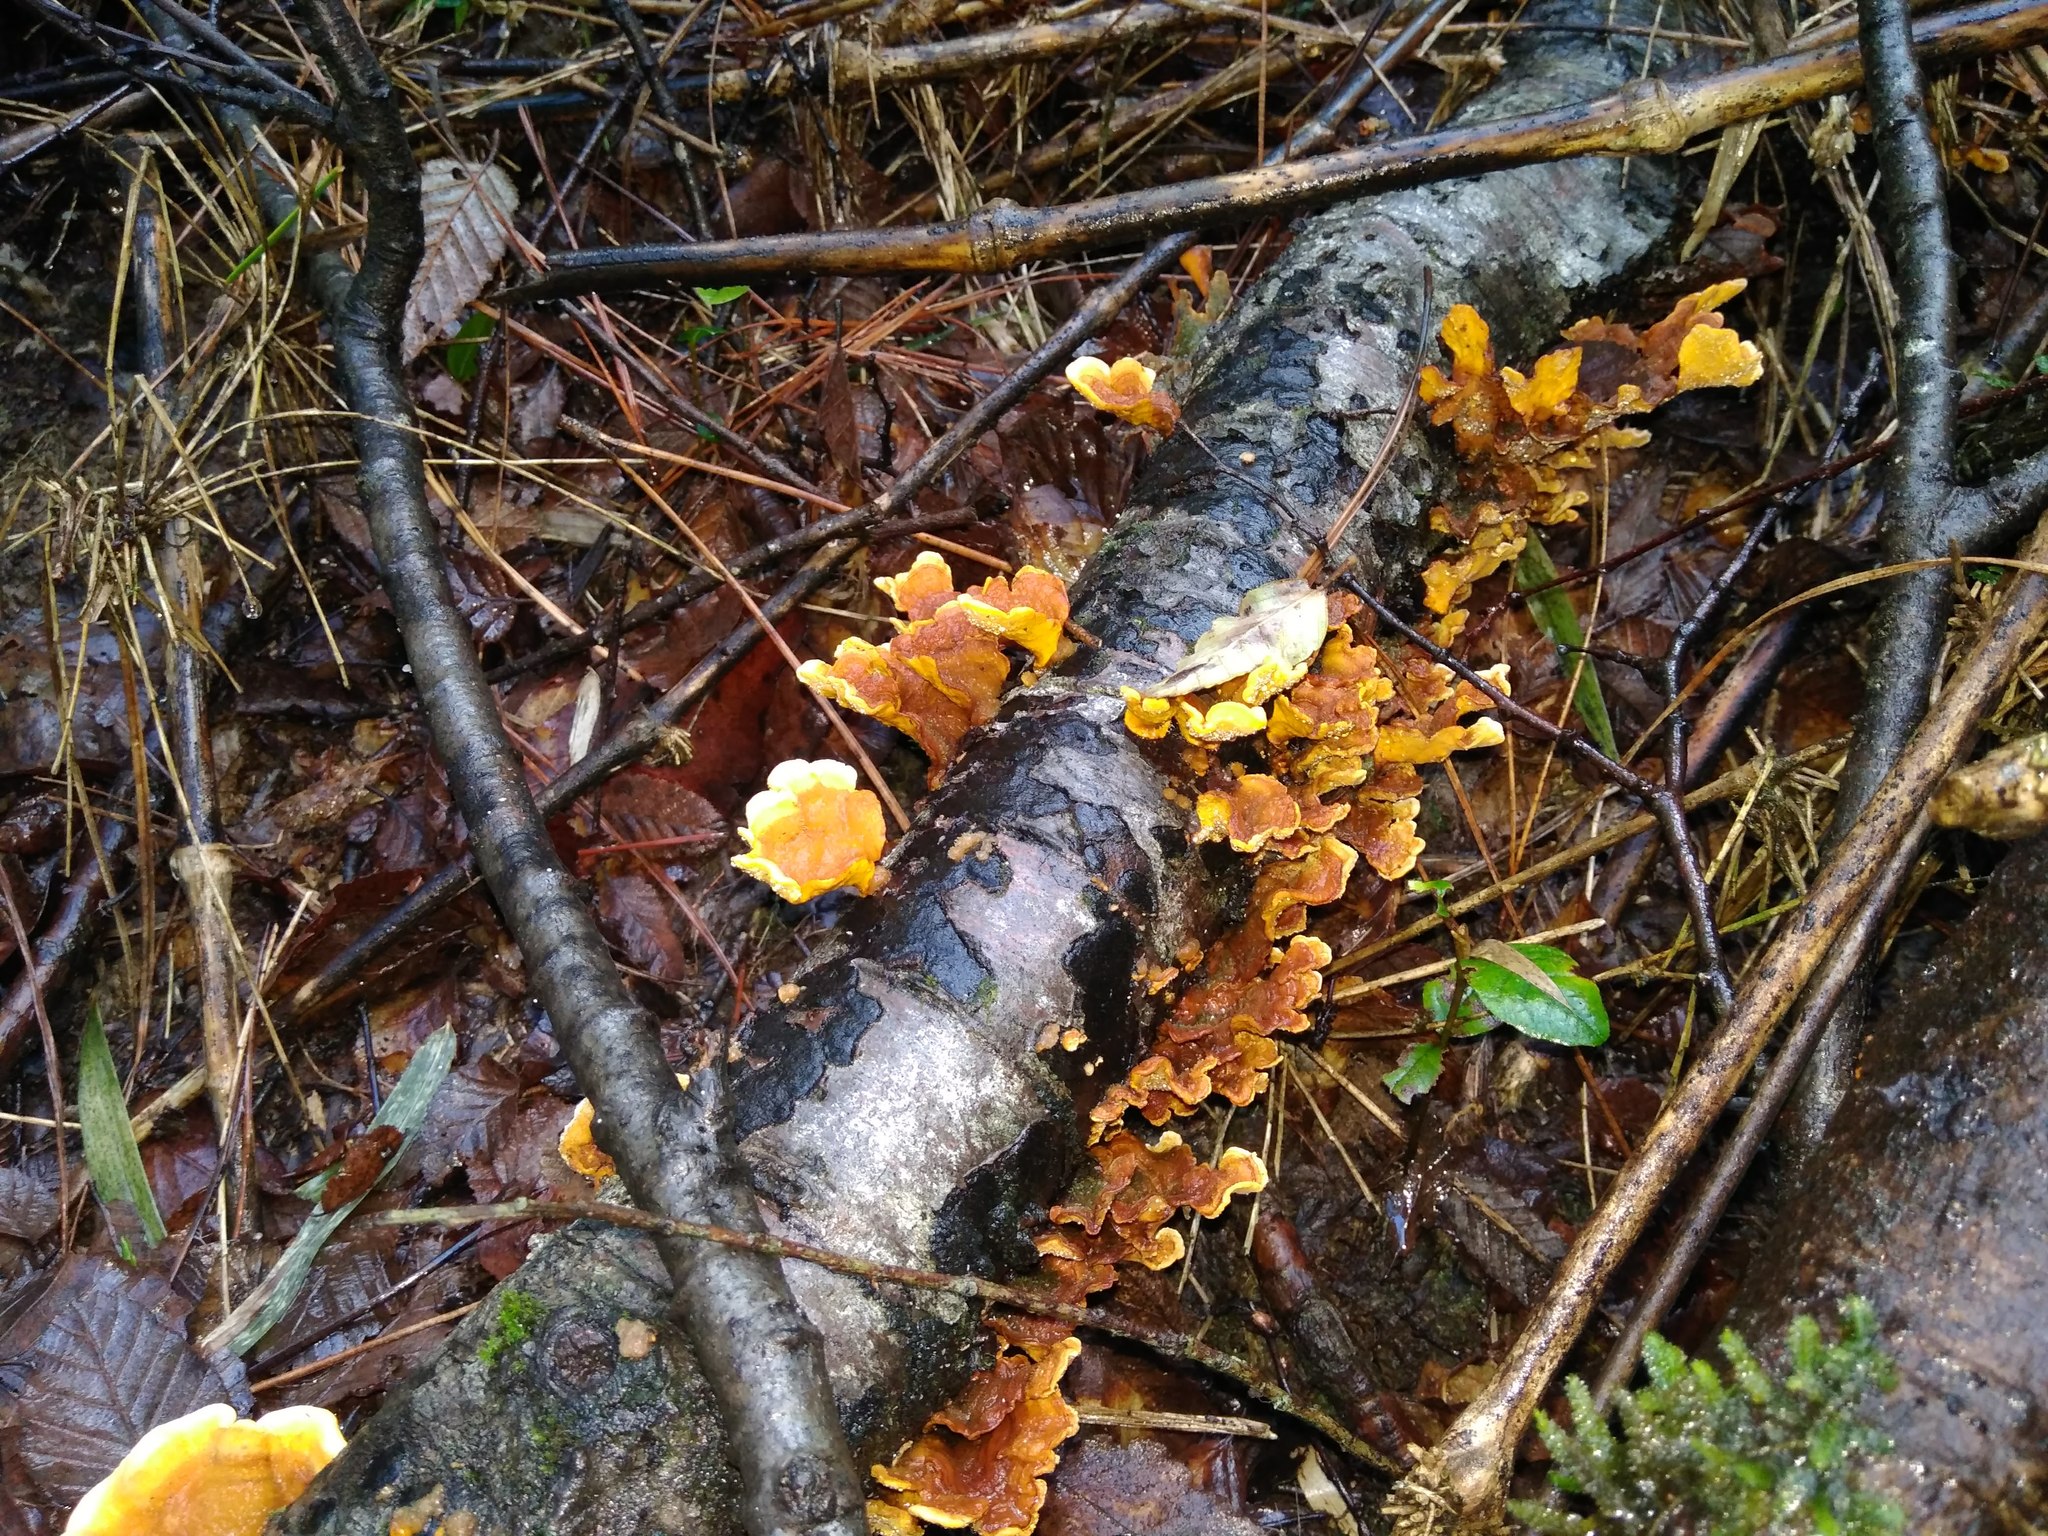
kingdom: Fungi
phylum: Basidiomycota
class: Agaricomycetes
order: Russulales
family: Stereaceae
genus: Stereum
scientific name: Stereum hirsutum
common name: Hairy curtain crust
